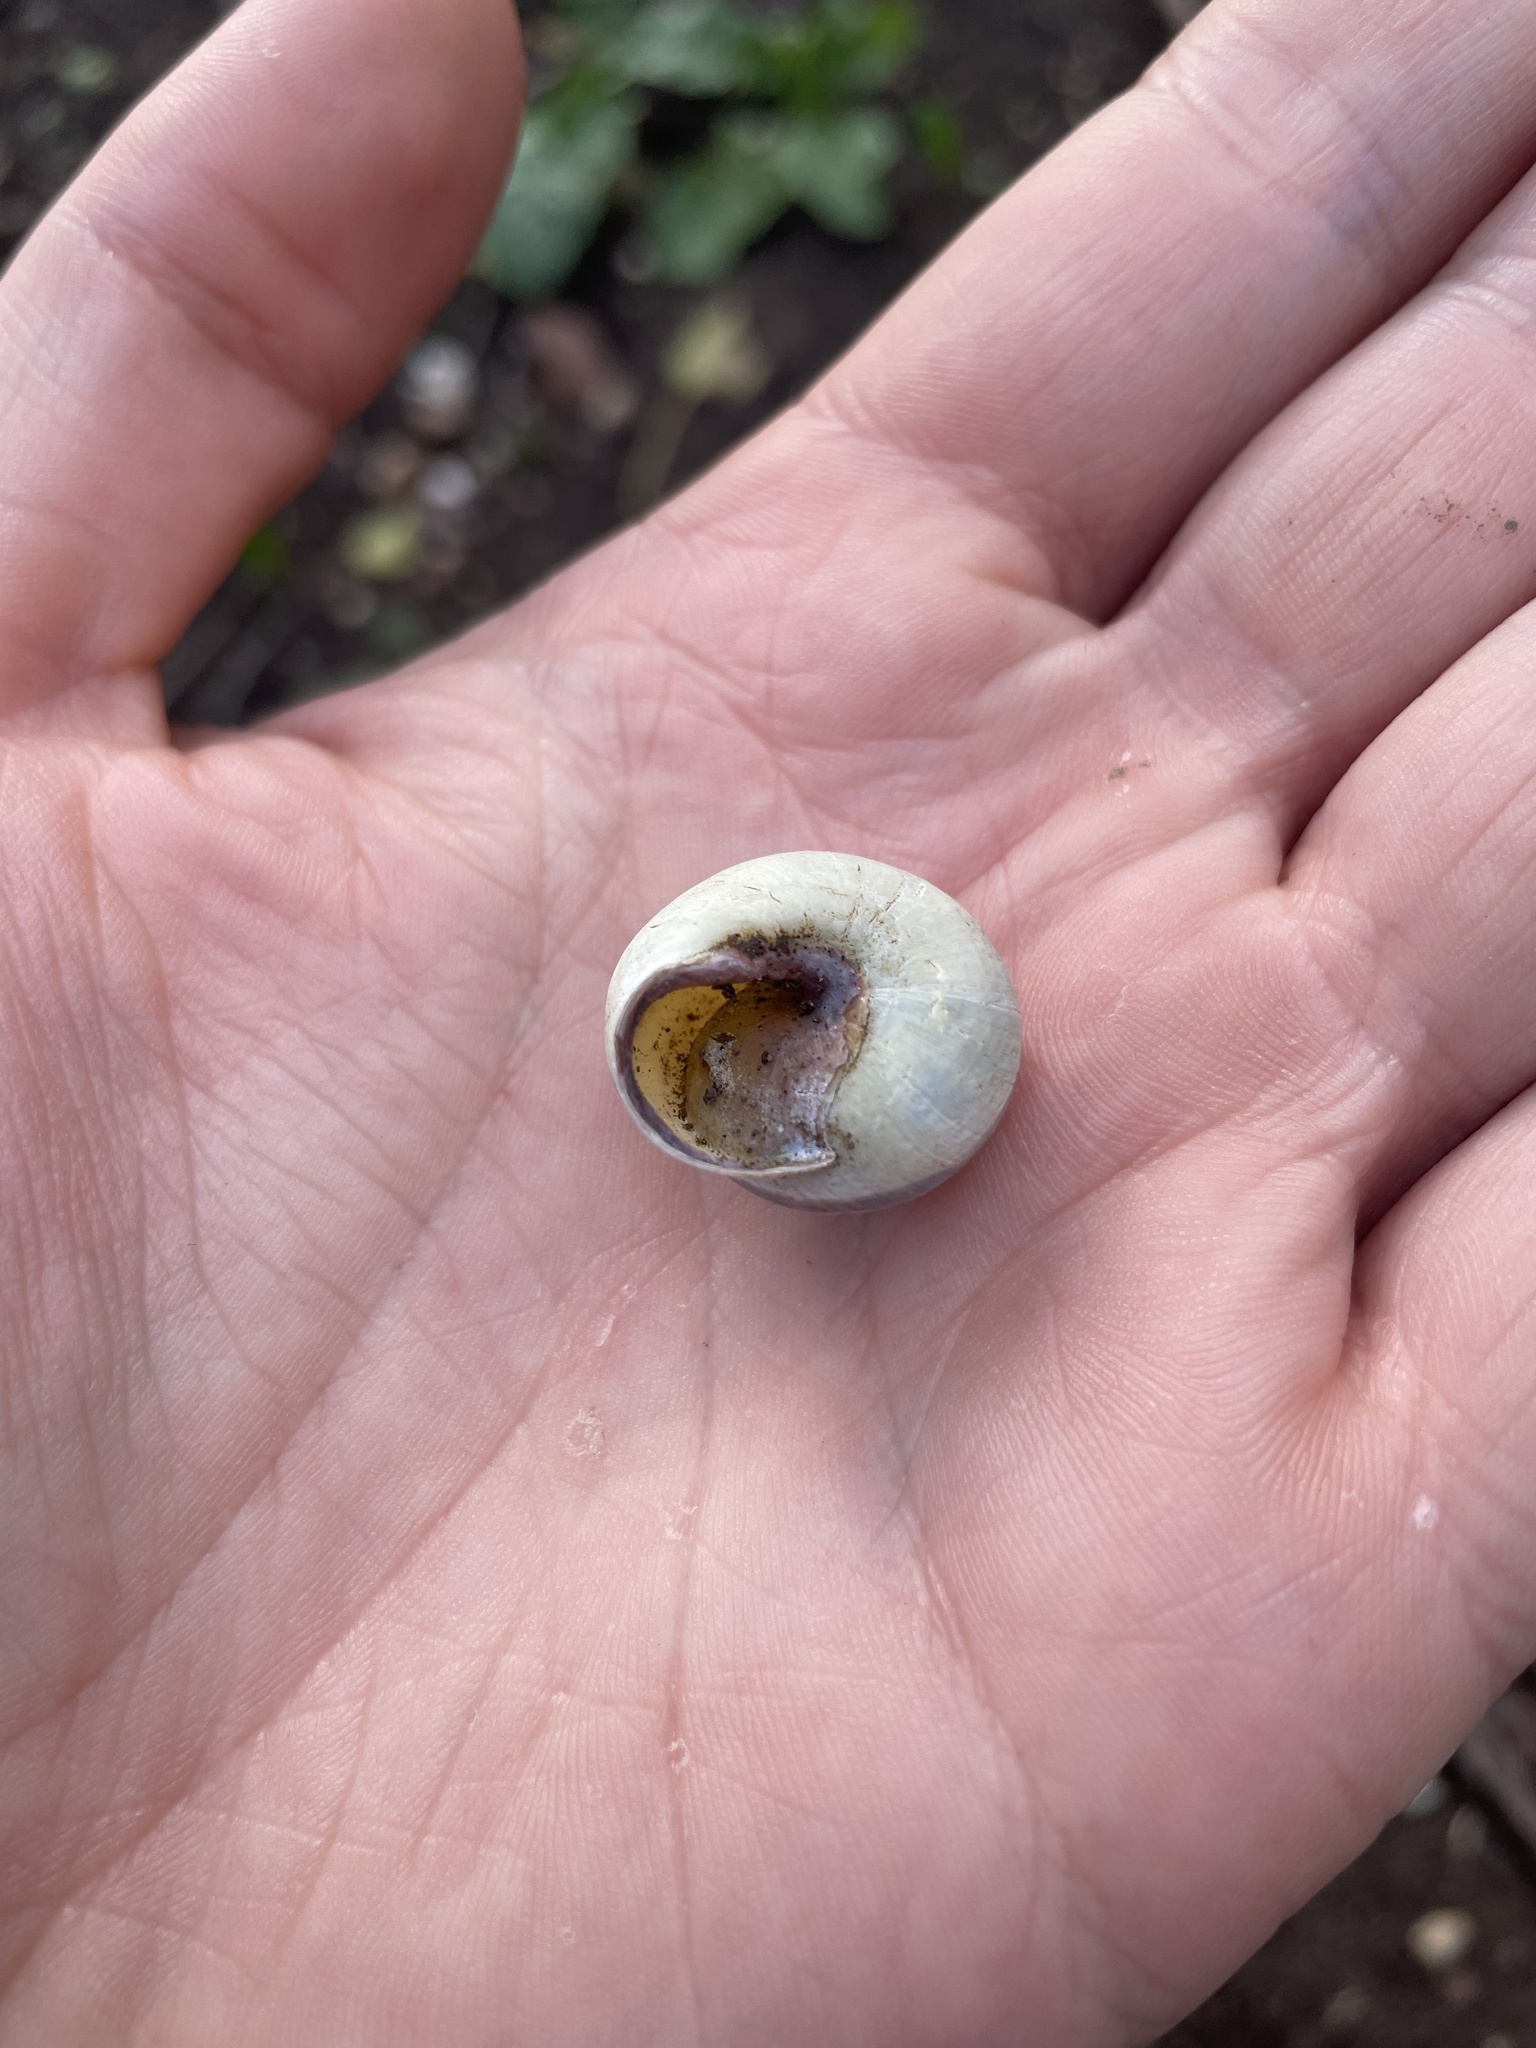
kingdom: Animalia
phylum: Mollusca
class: Gastropoda
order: Stylommatophora
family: Helicidae
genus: Cepaea
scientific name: Cepaea nemoralis
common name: Grovesnail
